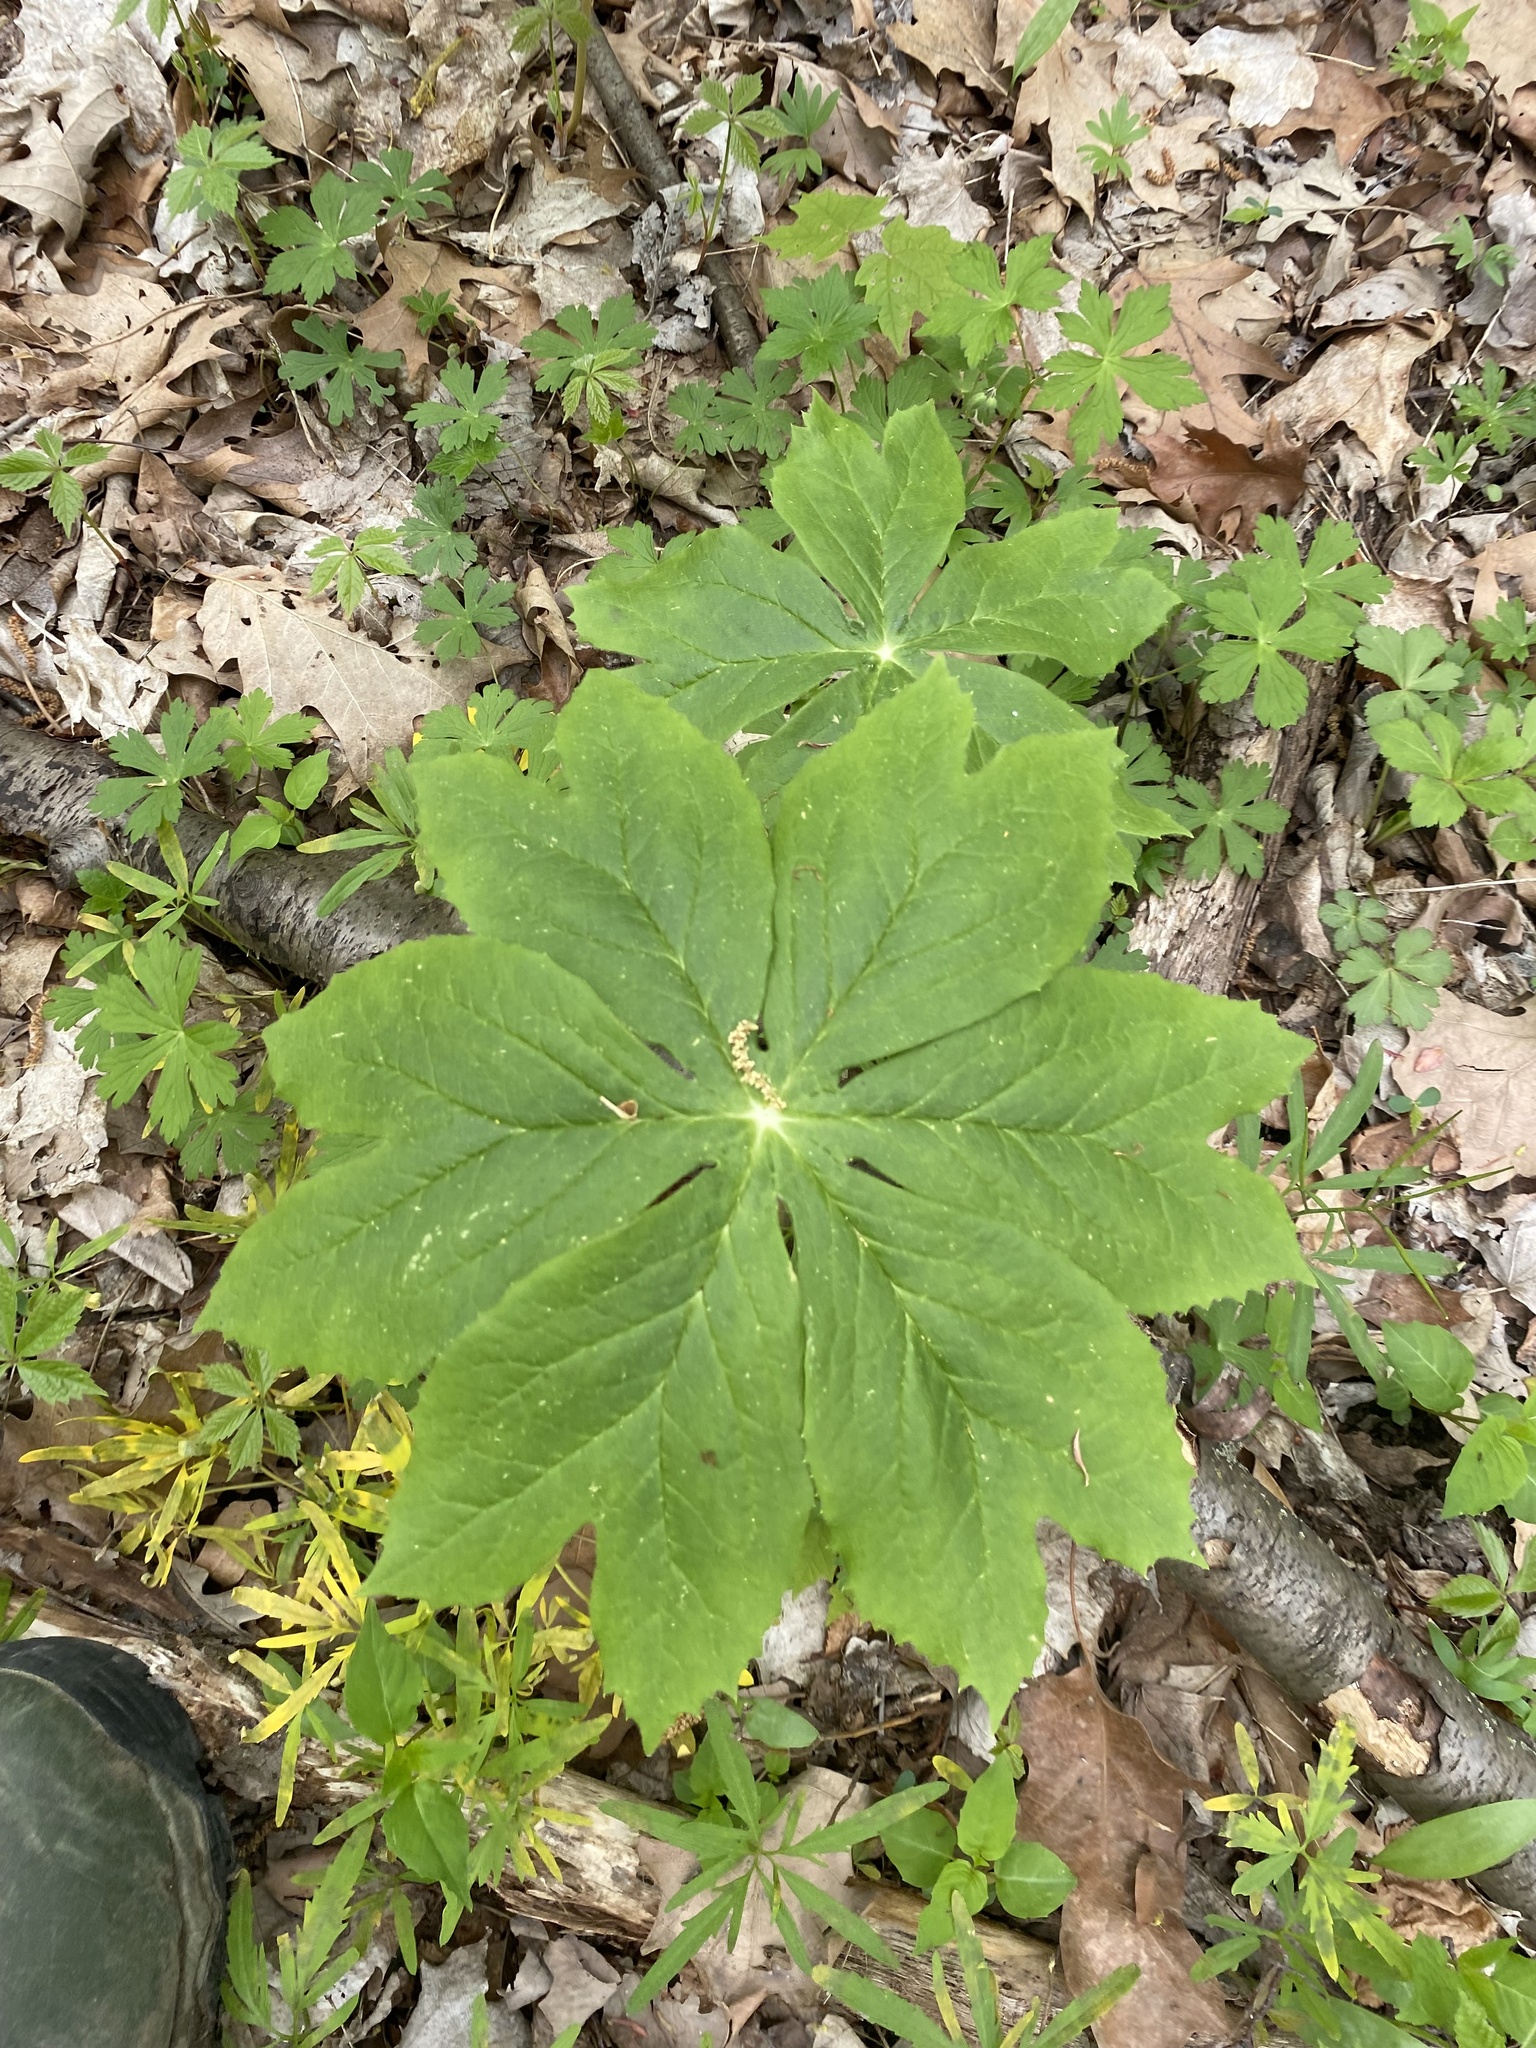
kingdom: Plantae
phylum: Tracheophyta
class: Magnoliopsida
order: Ranunculales
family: Berberidaceae
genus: Podophyllum
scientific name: Podophyllum peltatum
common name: Wild mandrake
